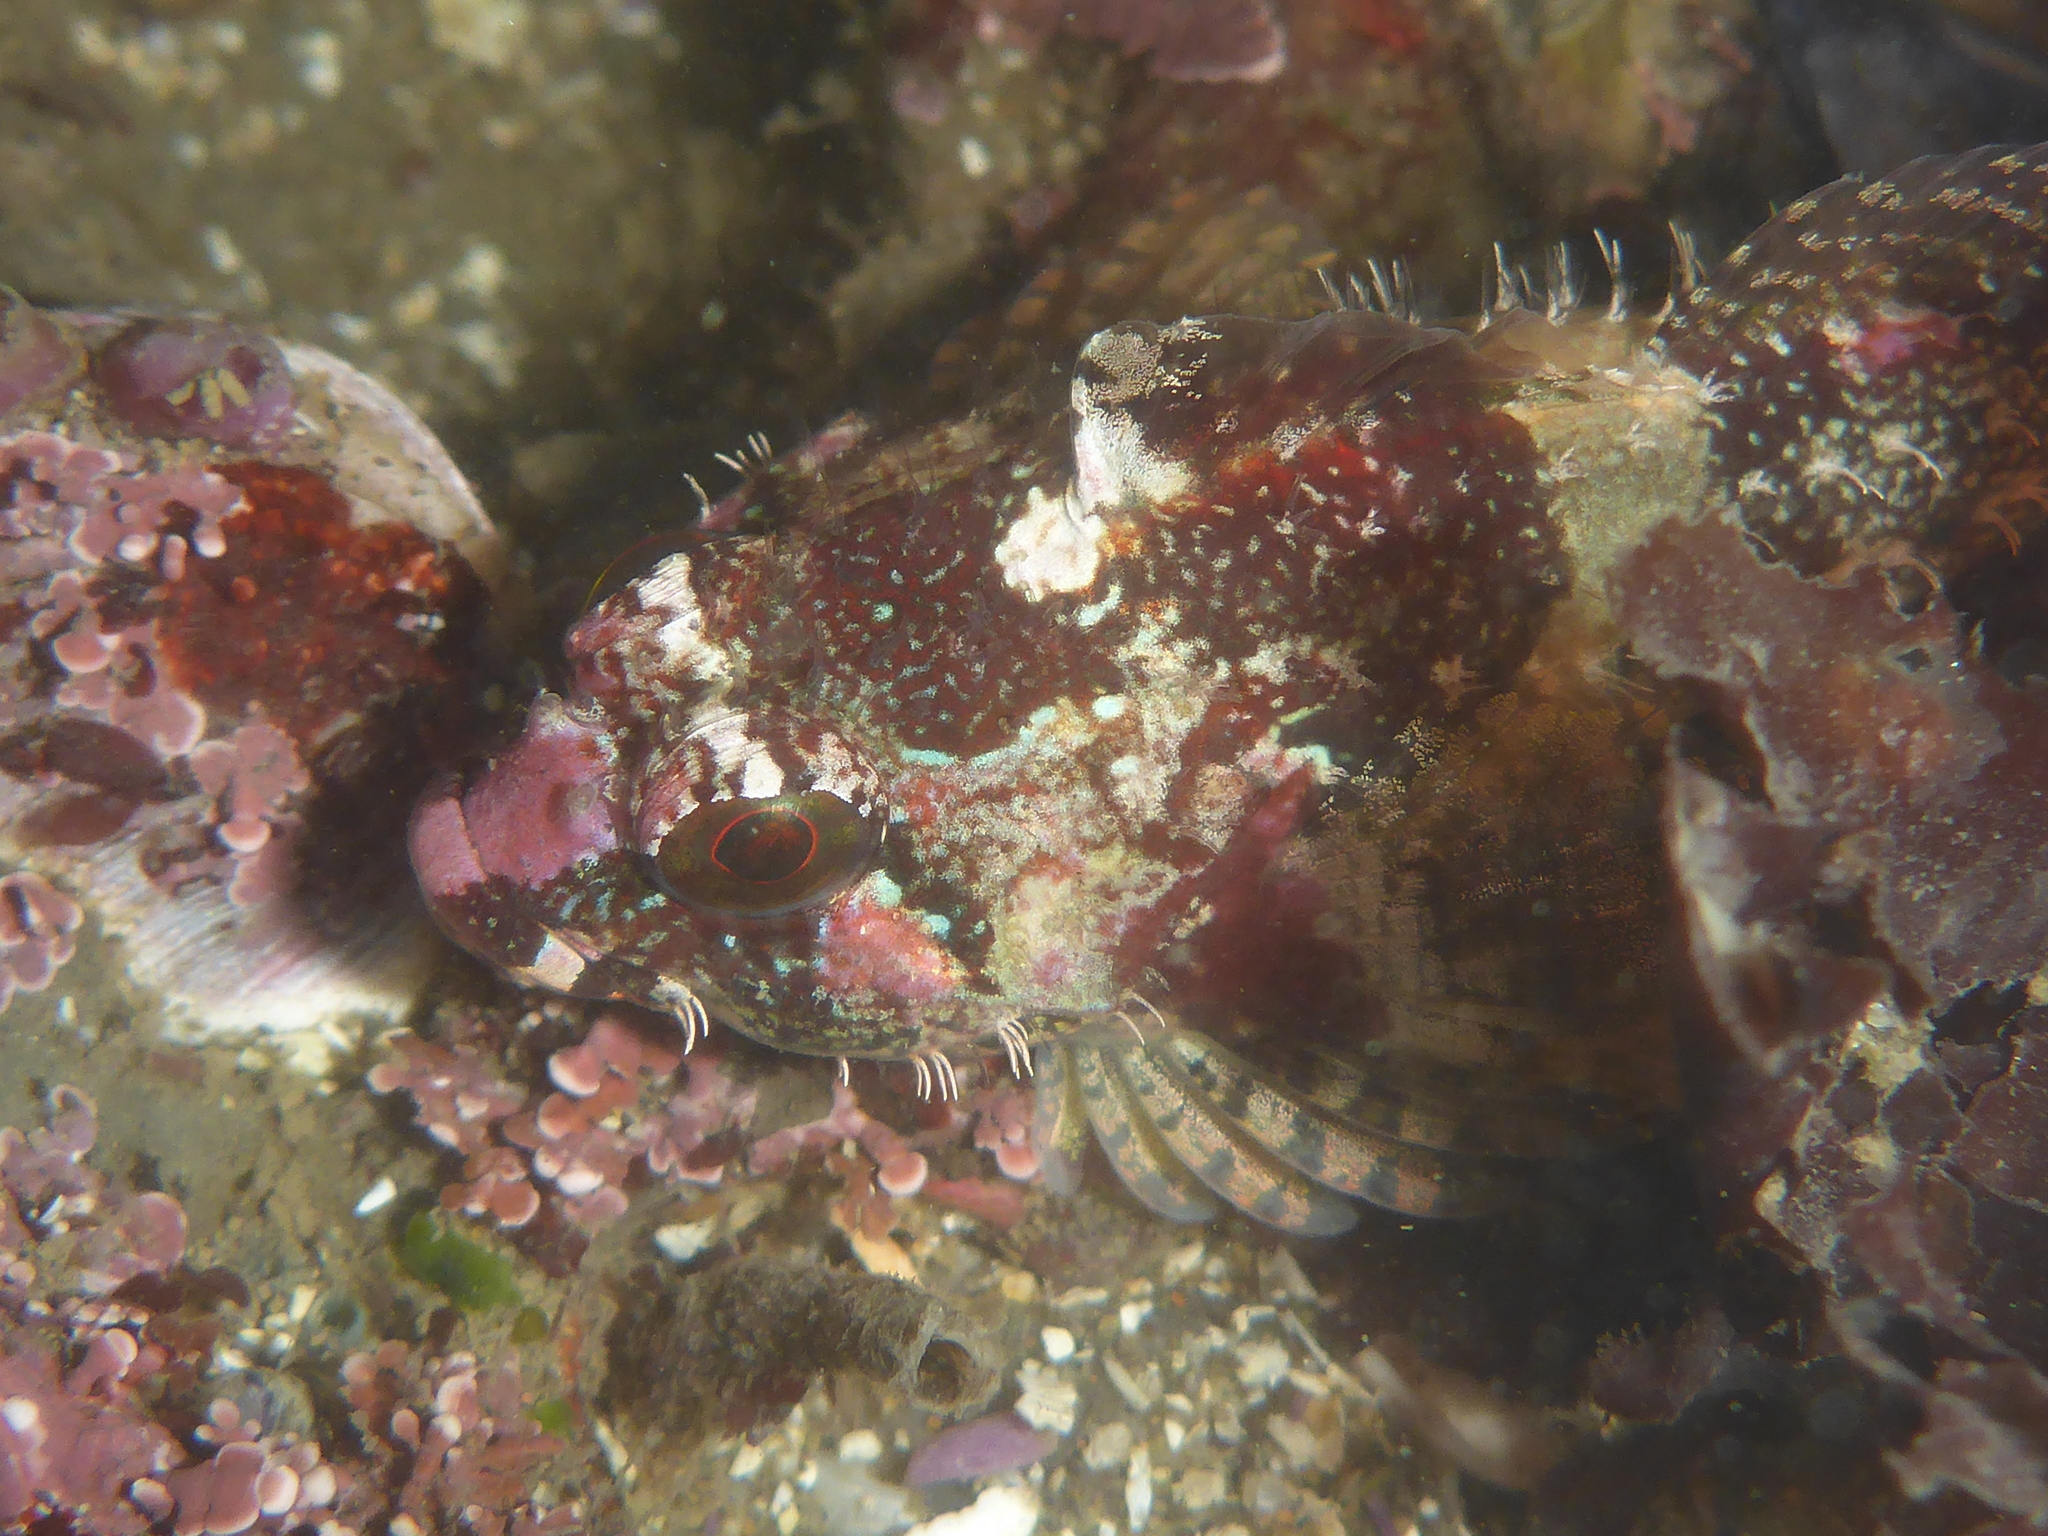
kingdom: Animalia
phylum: Chordata
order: Scorpaeniformes
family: Cottidae
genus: Oligocottus
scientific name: Oligocottus rubellio
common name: Rosy sculpin
